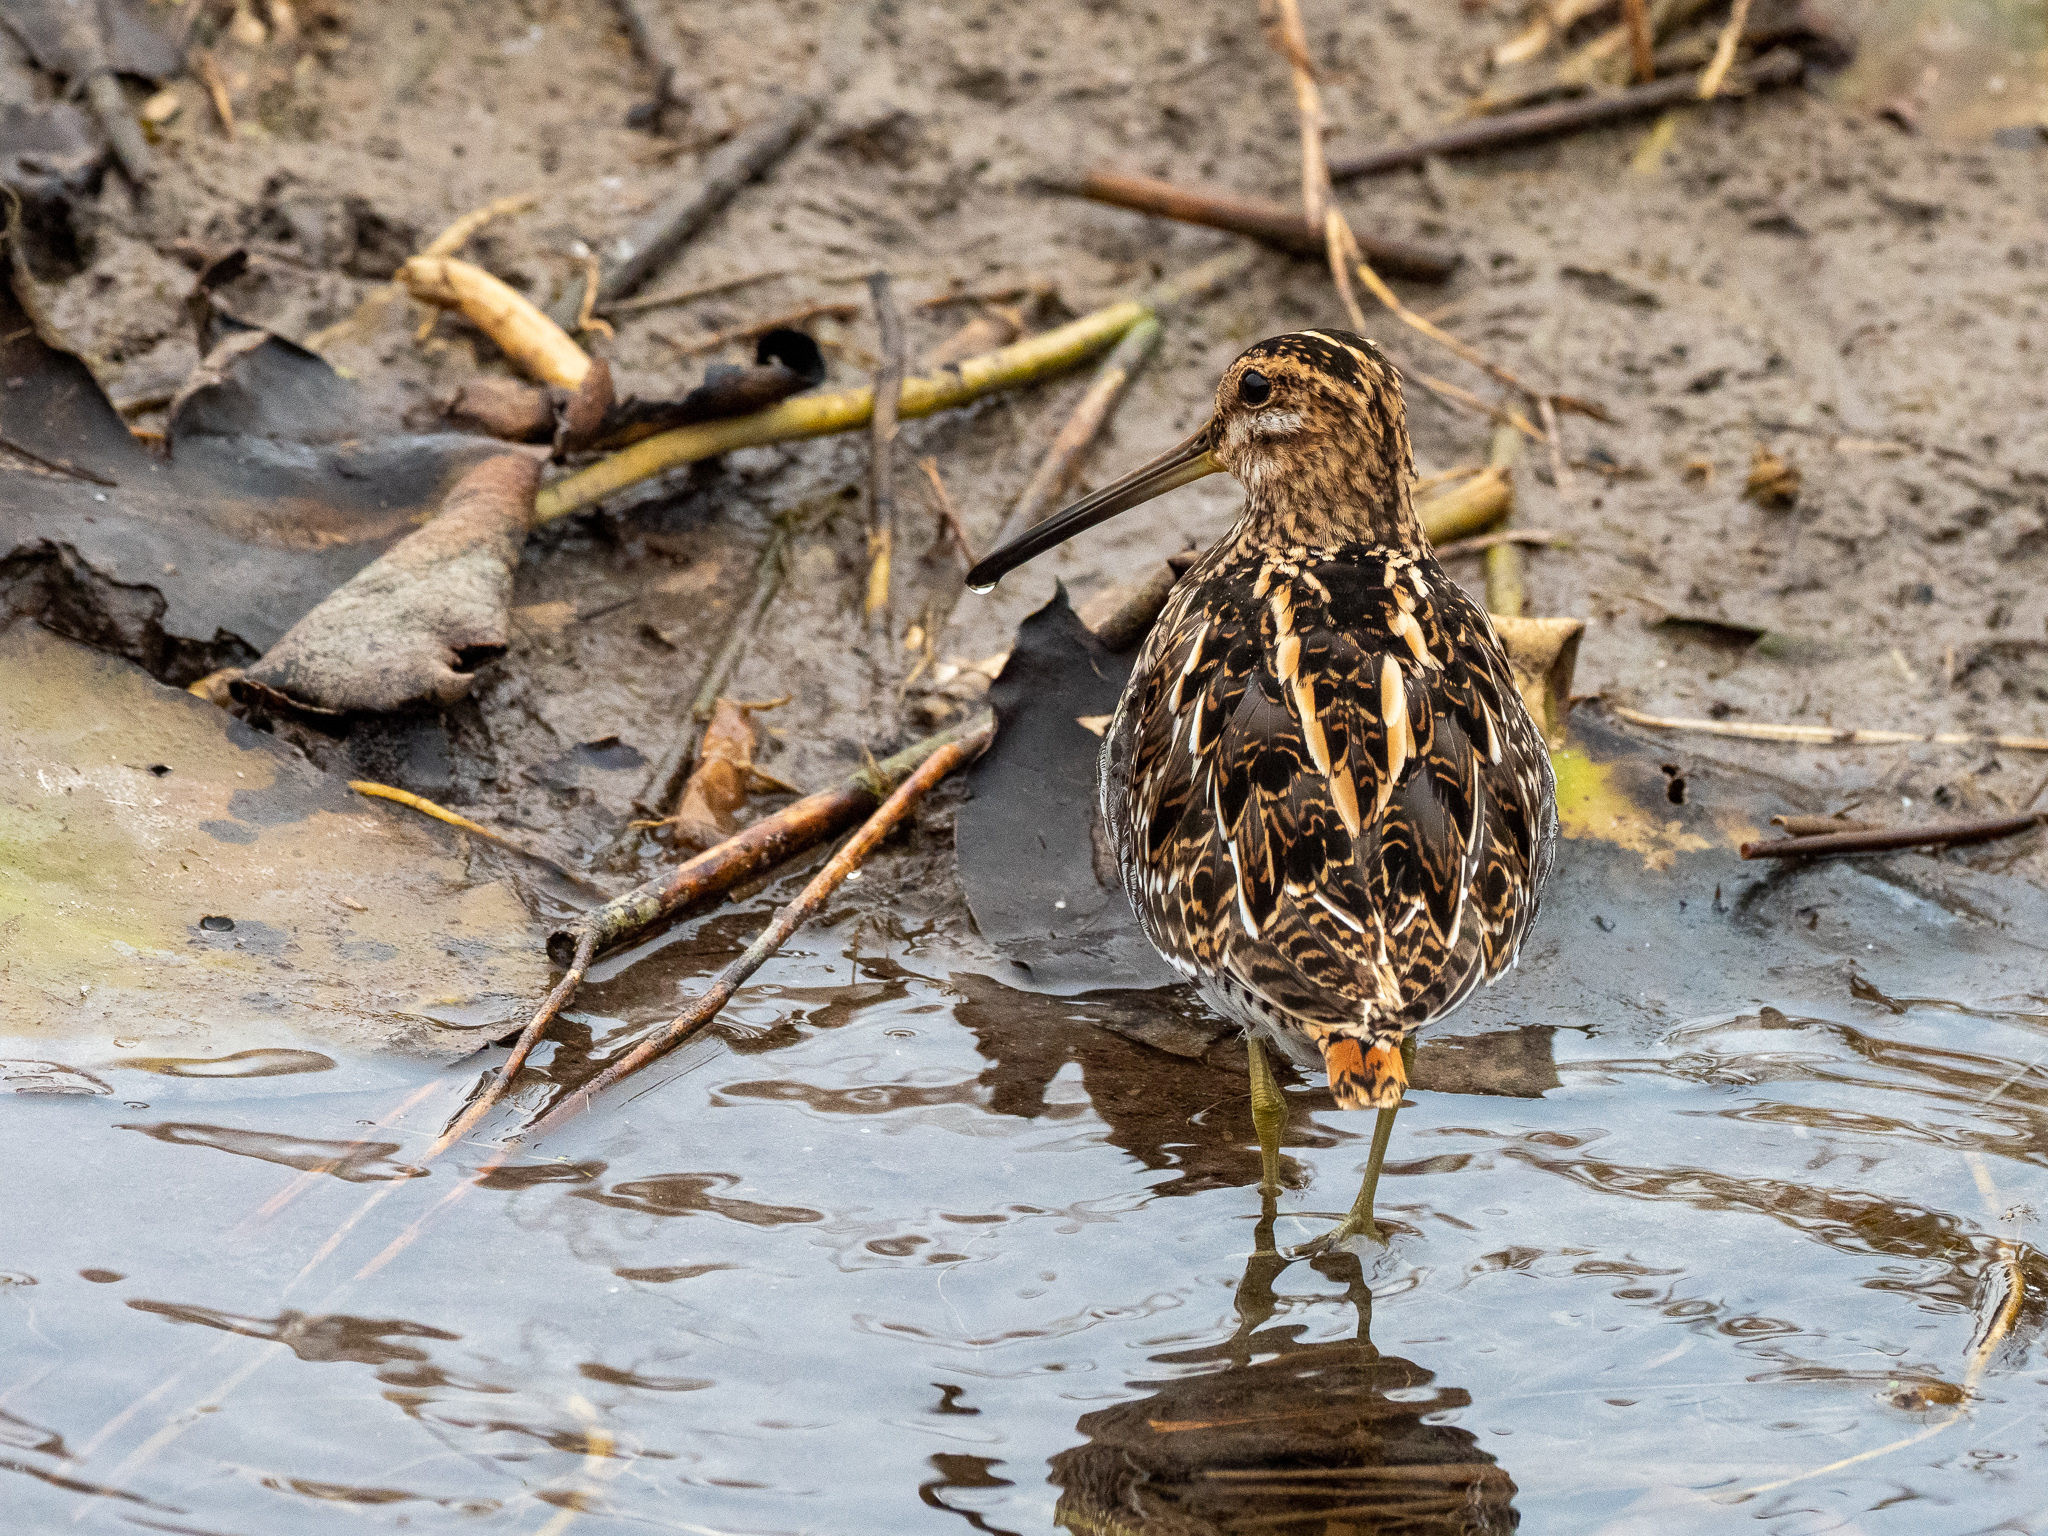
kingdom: Animalia
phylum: Chordata
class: Aves
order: Charadriiformes
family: Scolopacidae
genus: Gallinago
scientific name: Gallinago gallinago
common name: Common snipe
